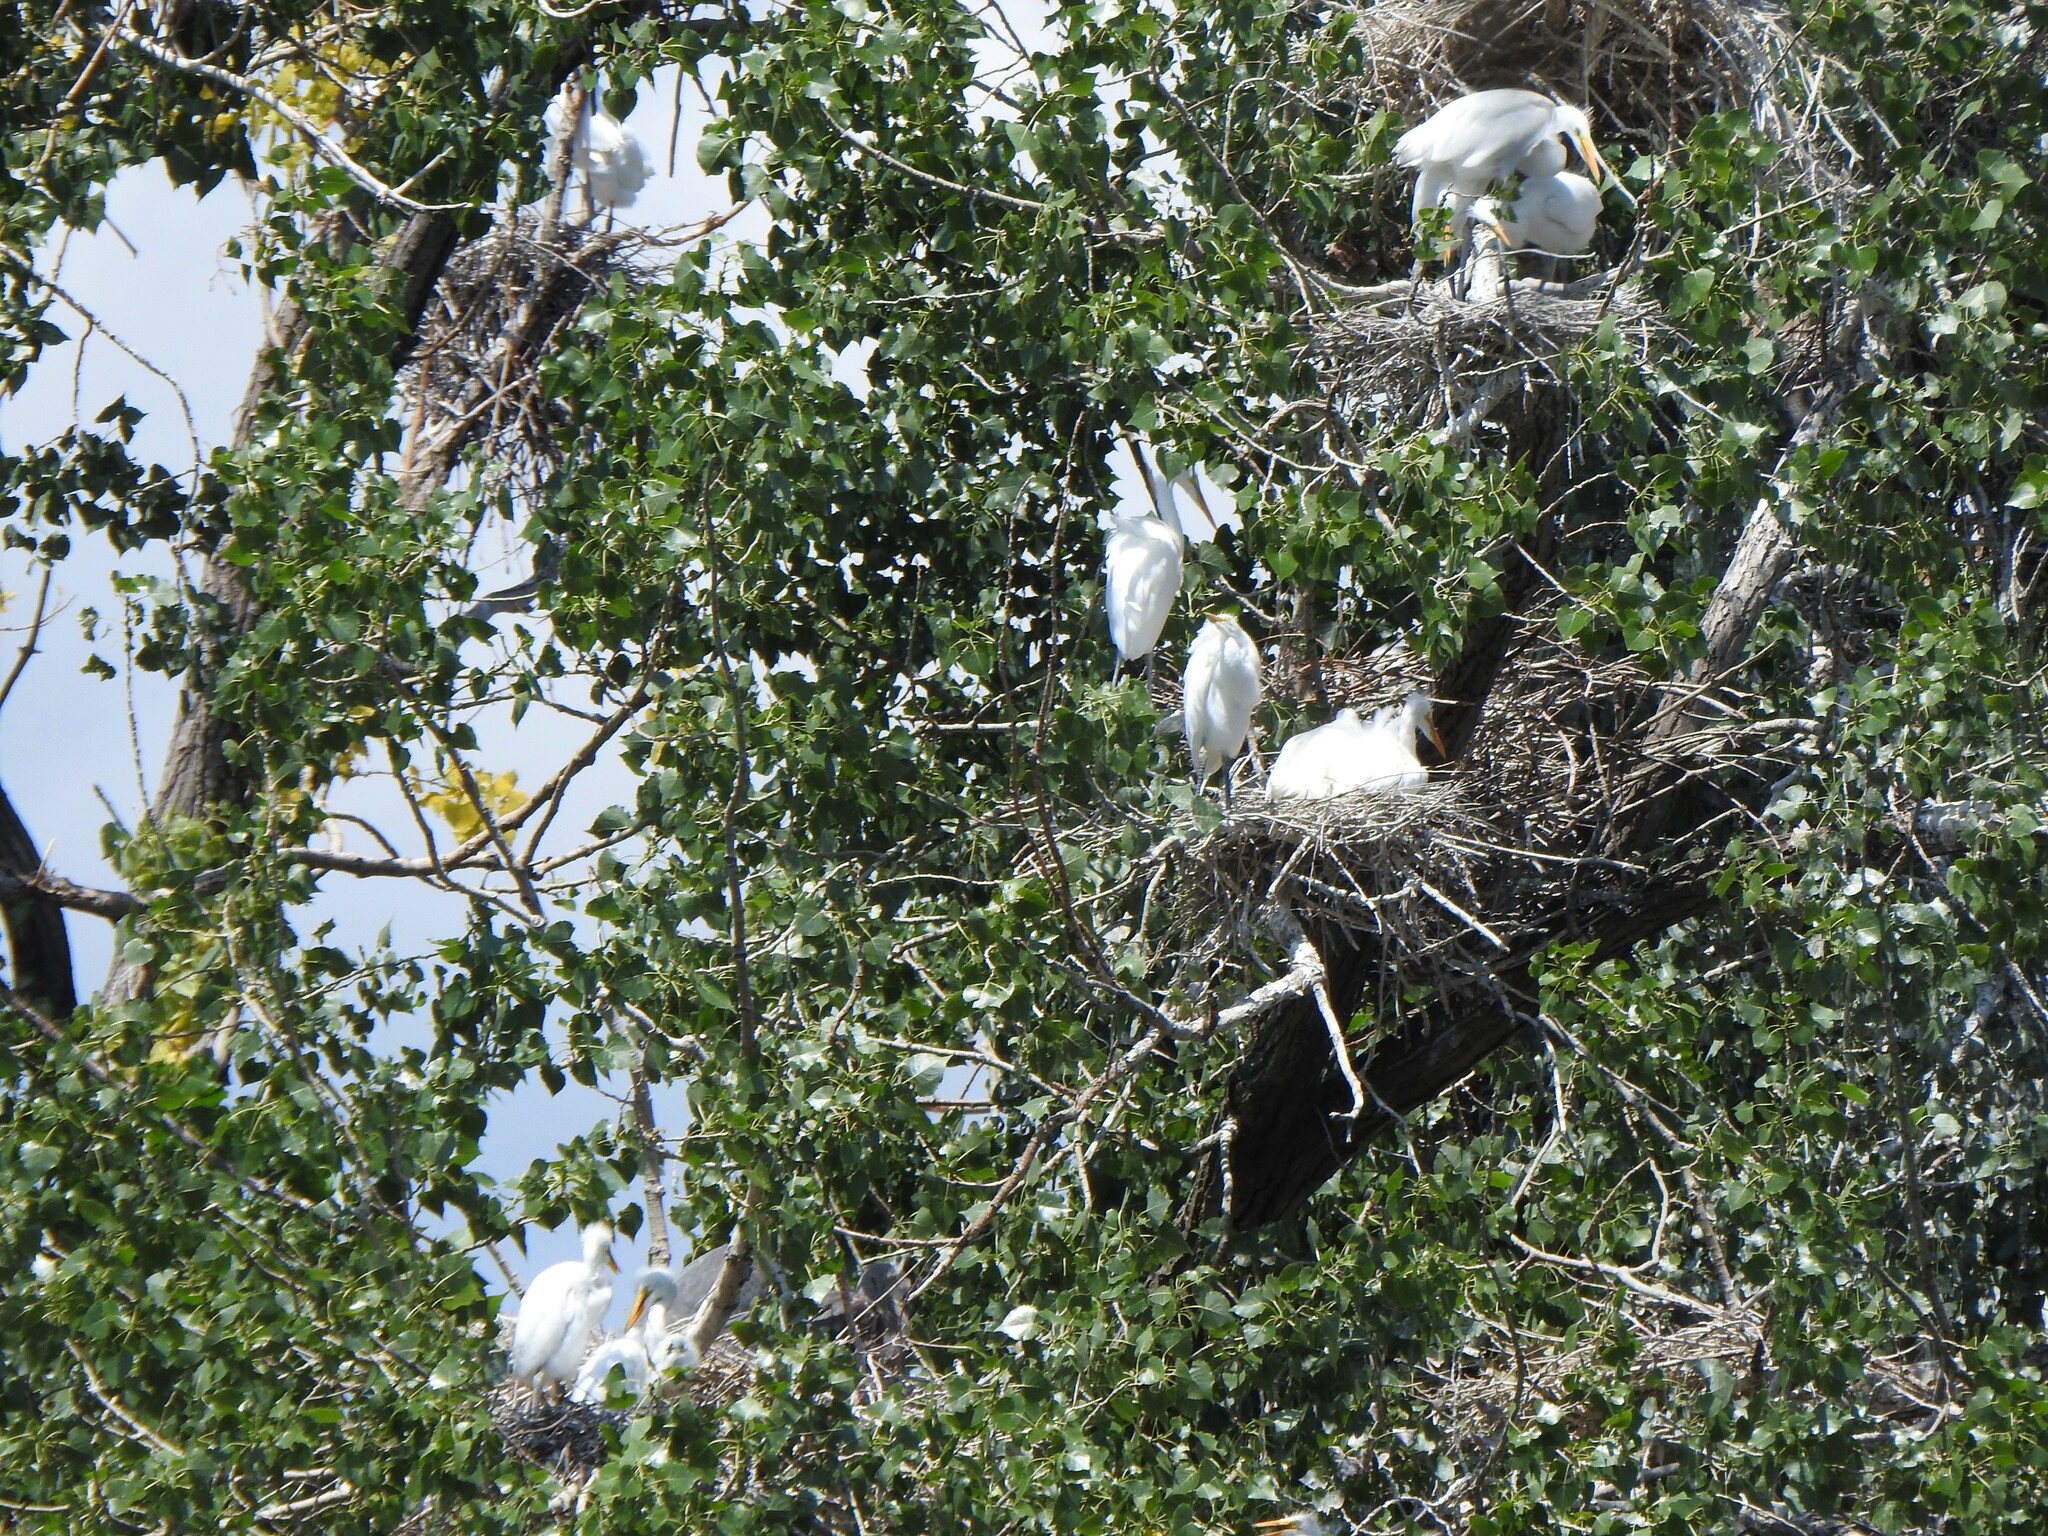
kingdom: Animalia
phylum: Chordata
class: Aves
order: Pelecaniformes
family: Ardeidae
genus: Ardea
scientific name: Ardea alba
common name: Great egret
